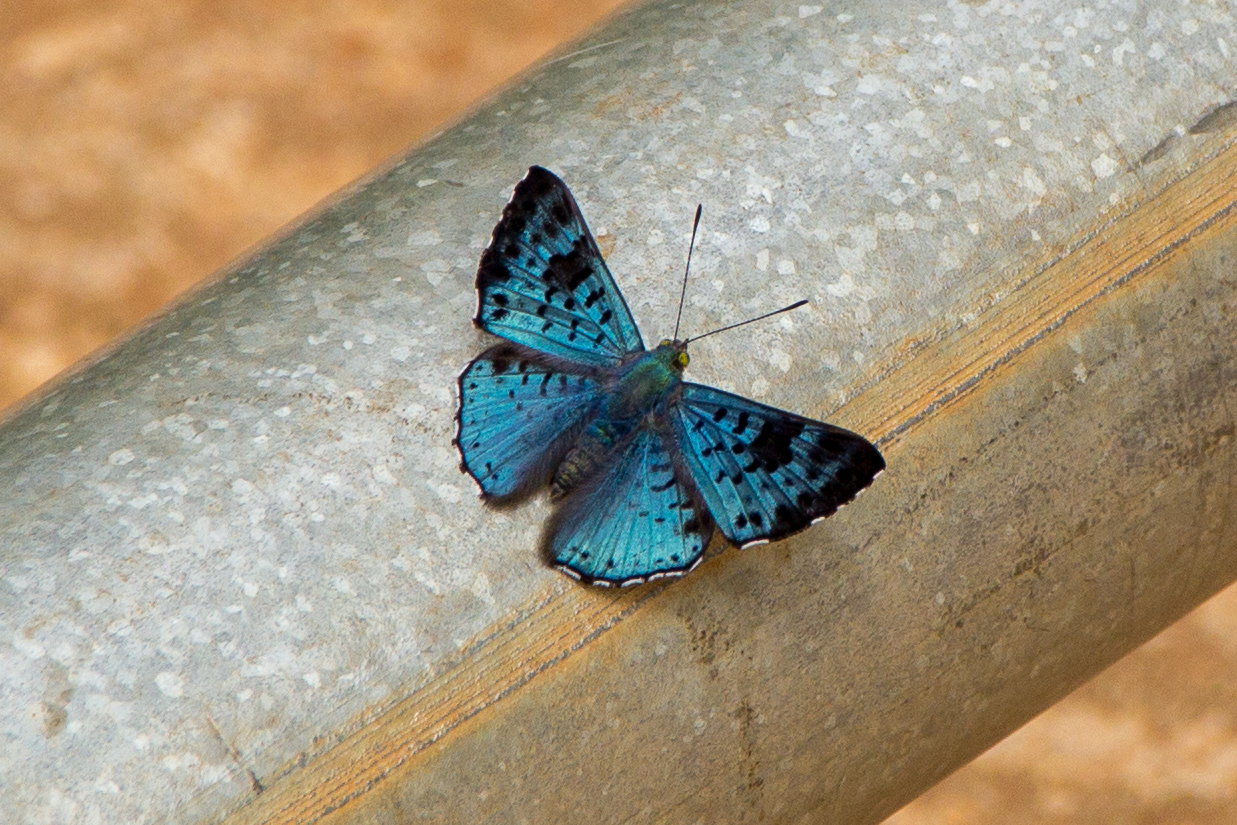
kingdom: Animalia
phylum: Arthropoda
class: Insecta
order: Lepidoptera
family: Riodinidae
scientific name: Riodinidae
